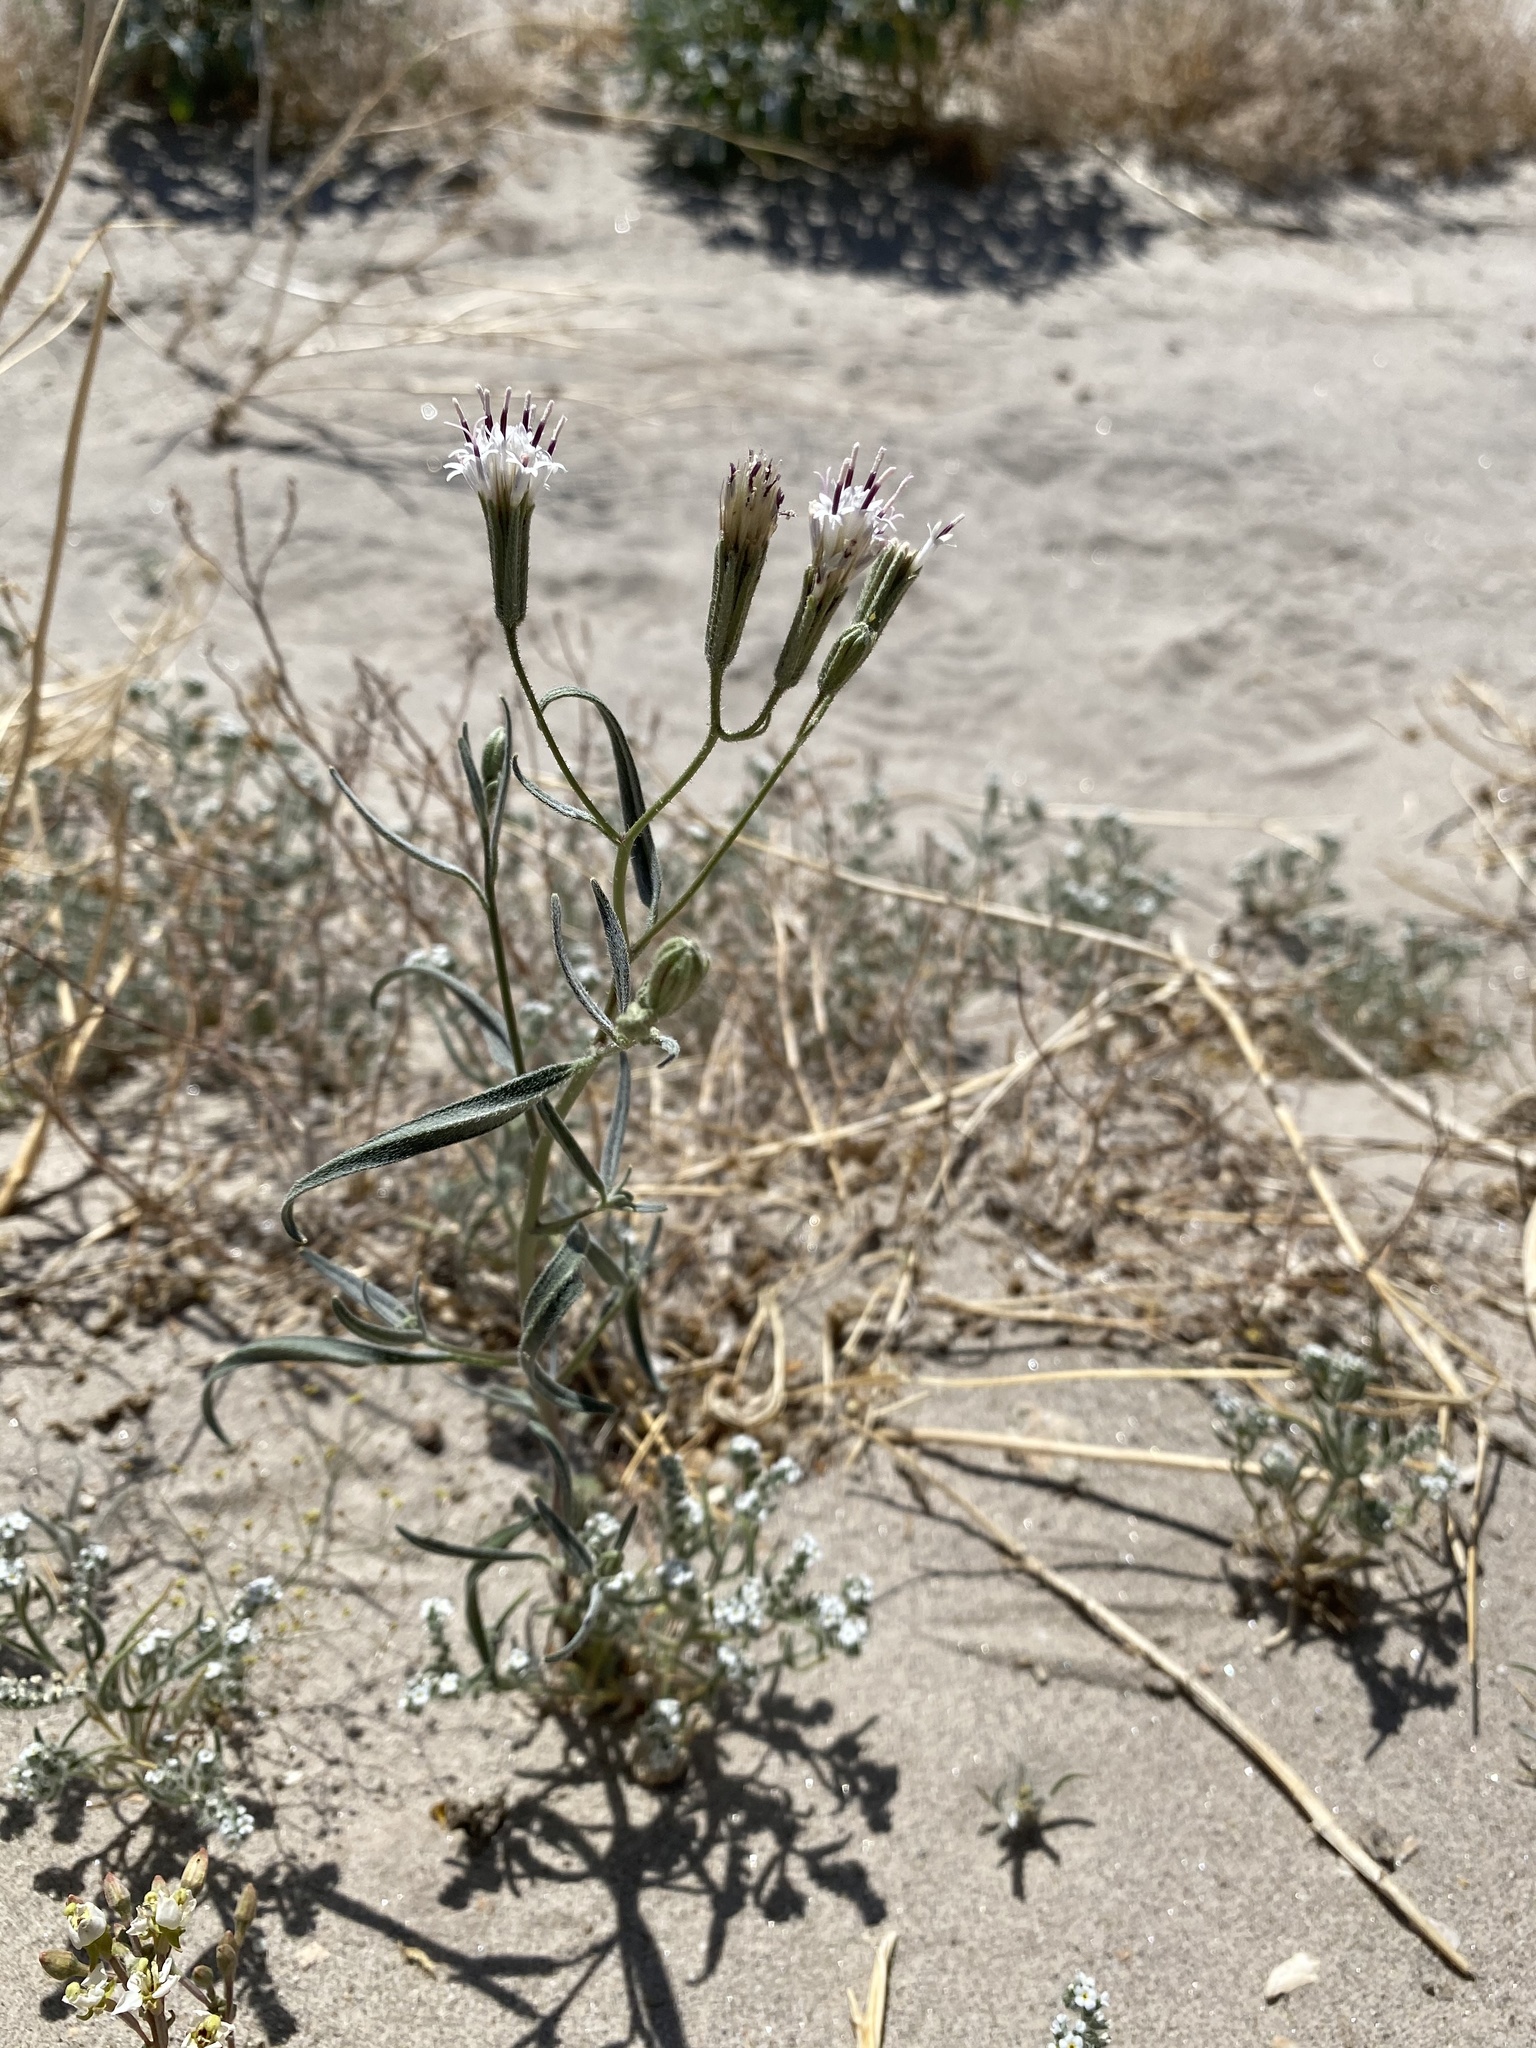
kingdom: Plantae
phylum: Tracheophyta
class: Magnoliopsida
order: Asterales
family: Asteraceae
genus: Palafoxia
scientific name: Palafoxia arida
